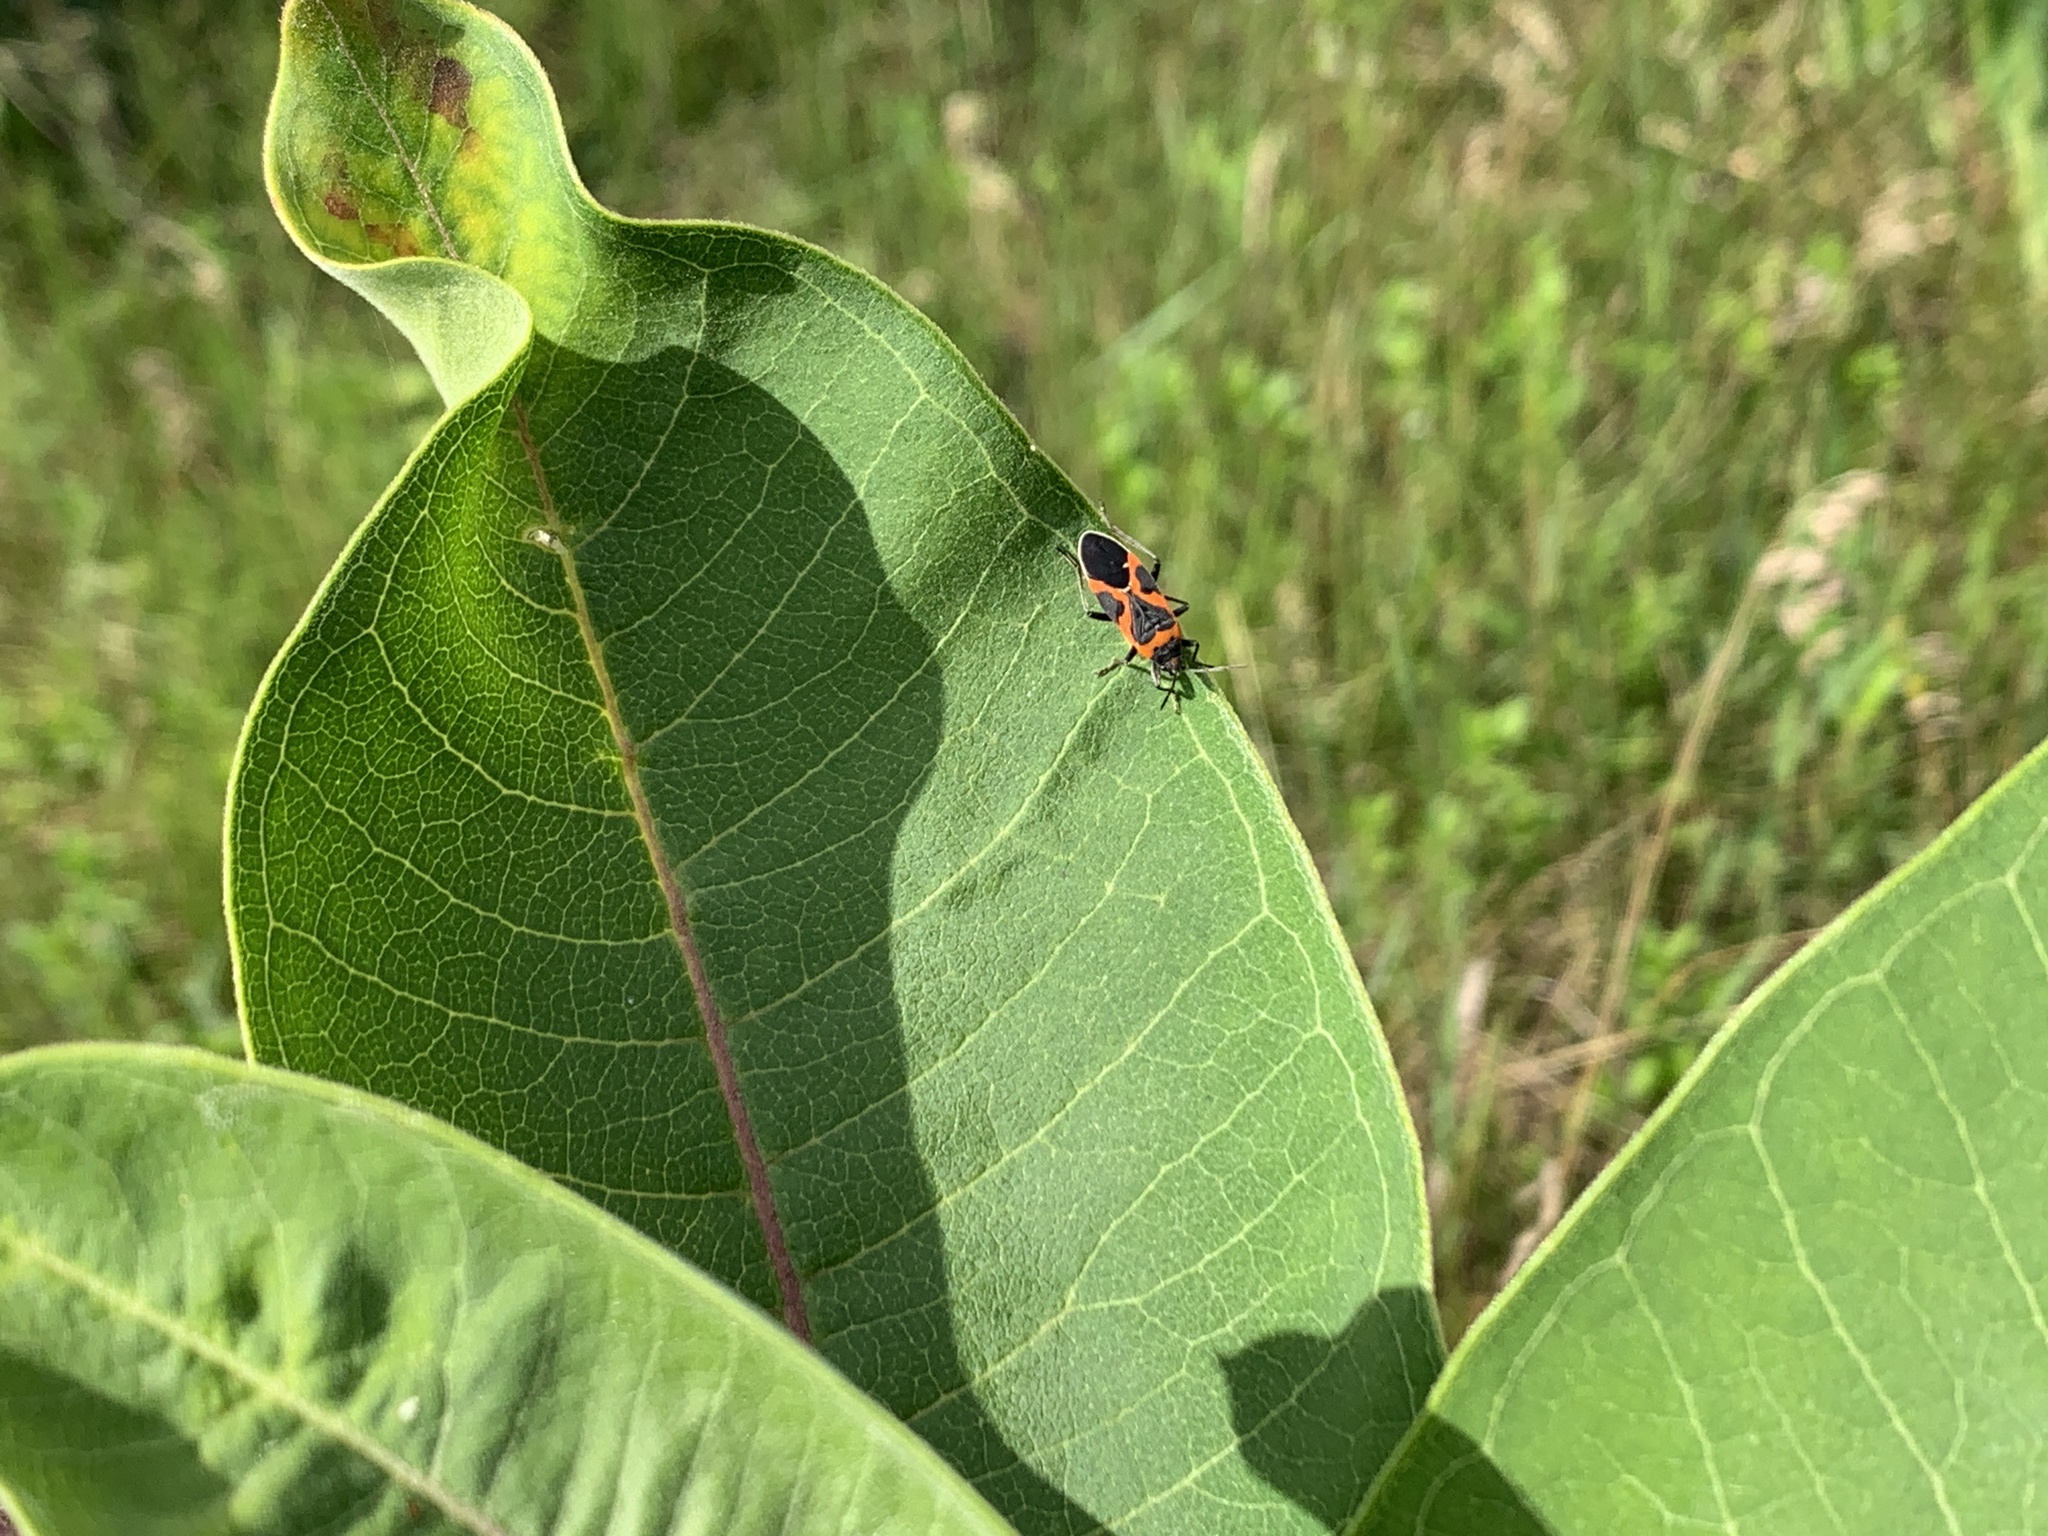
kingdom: Animalia
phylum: Arthropoda
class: Insecta
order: Hemiptera
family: Lygaeidae
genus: Lygaeus
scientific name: Lygaeus kalmii
